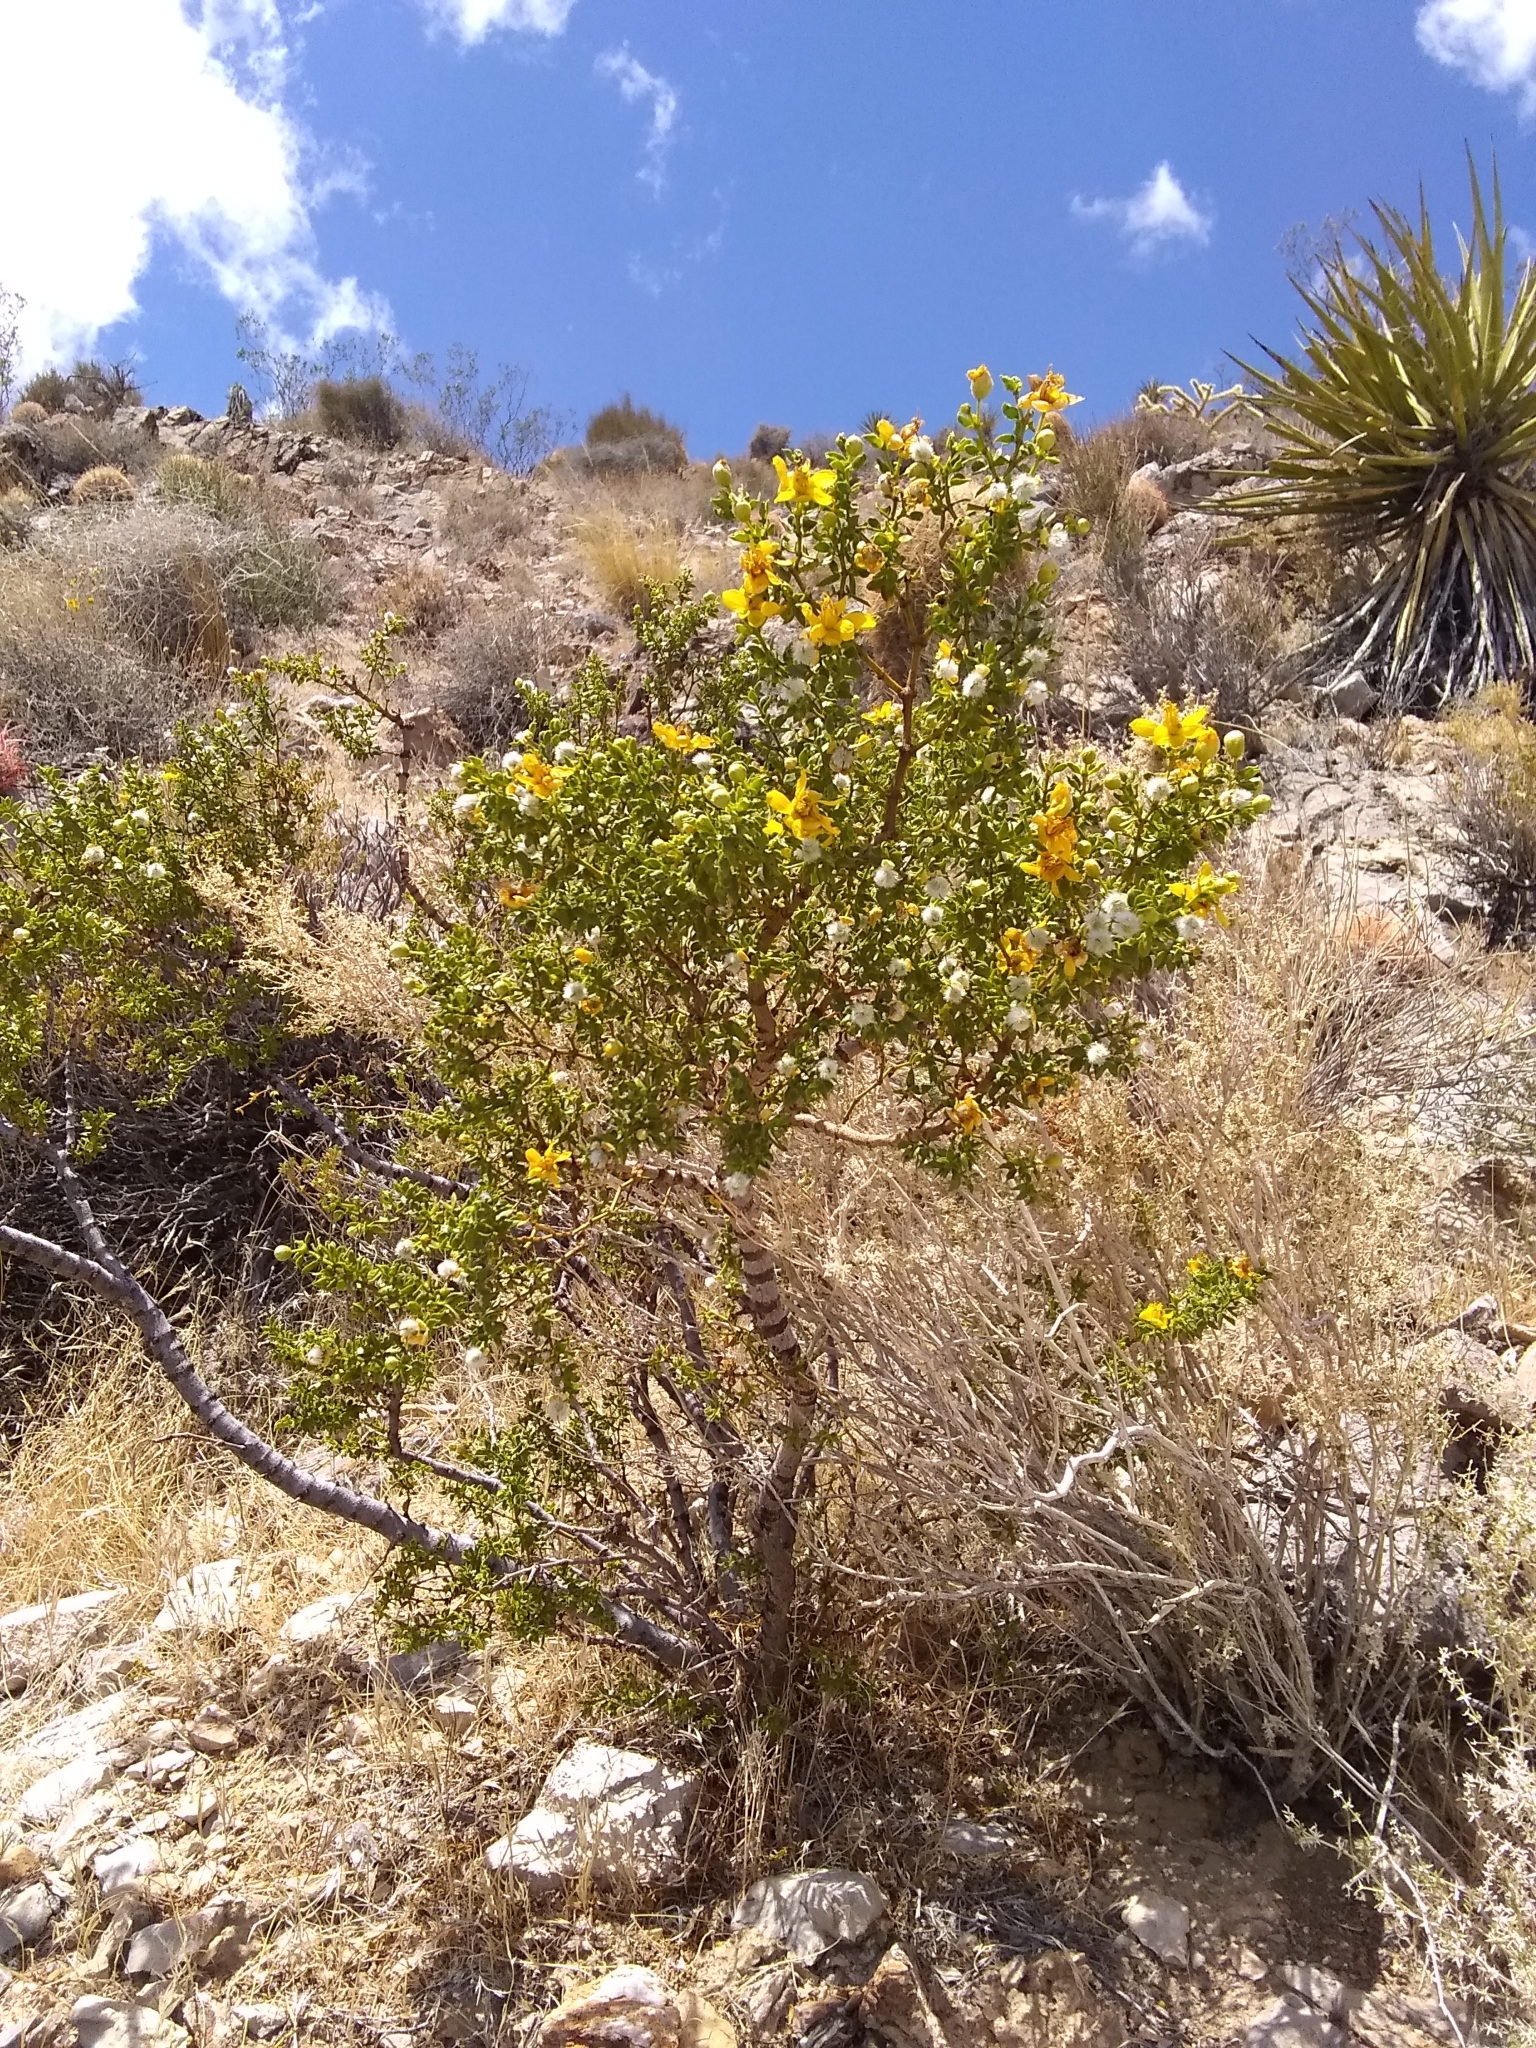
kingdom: Plantae
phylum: Tracheophyta
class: Magnoliopsida
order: Zygophyllales
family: Zygophyllaceae
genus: Larrea
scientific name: Larrea tridentata
